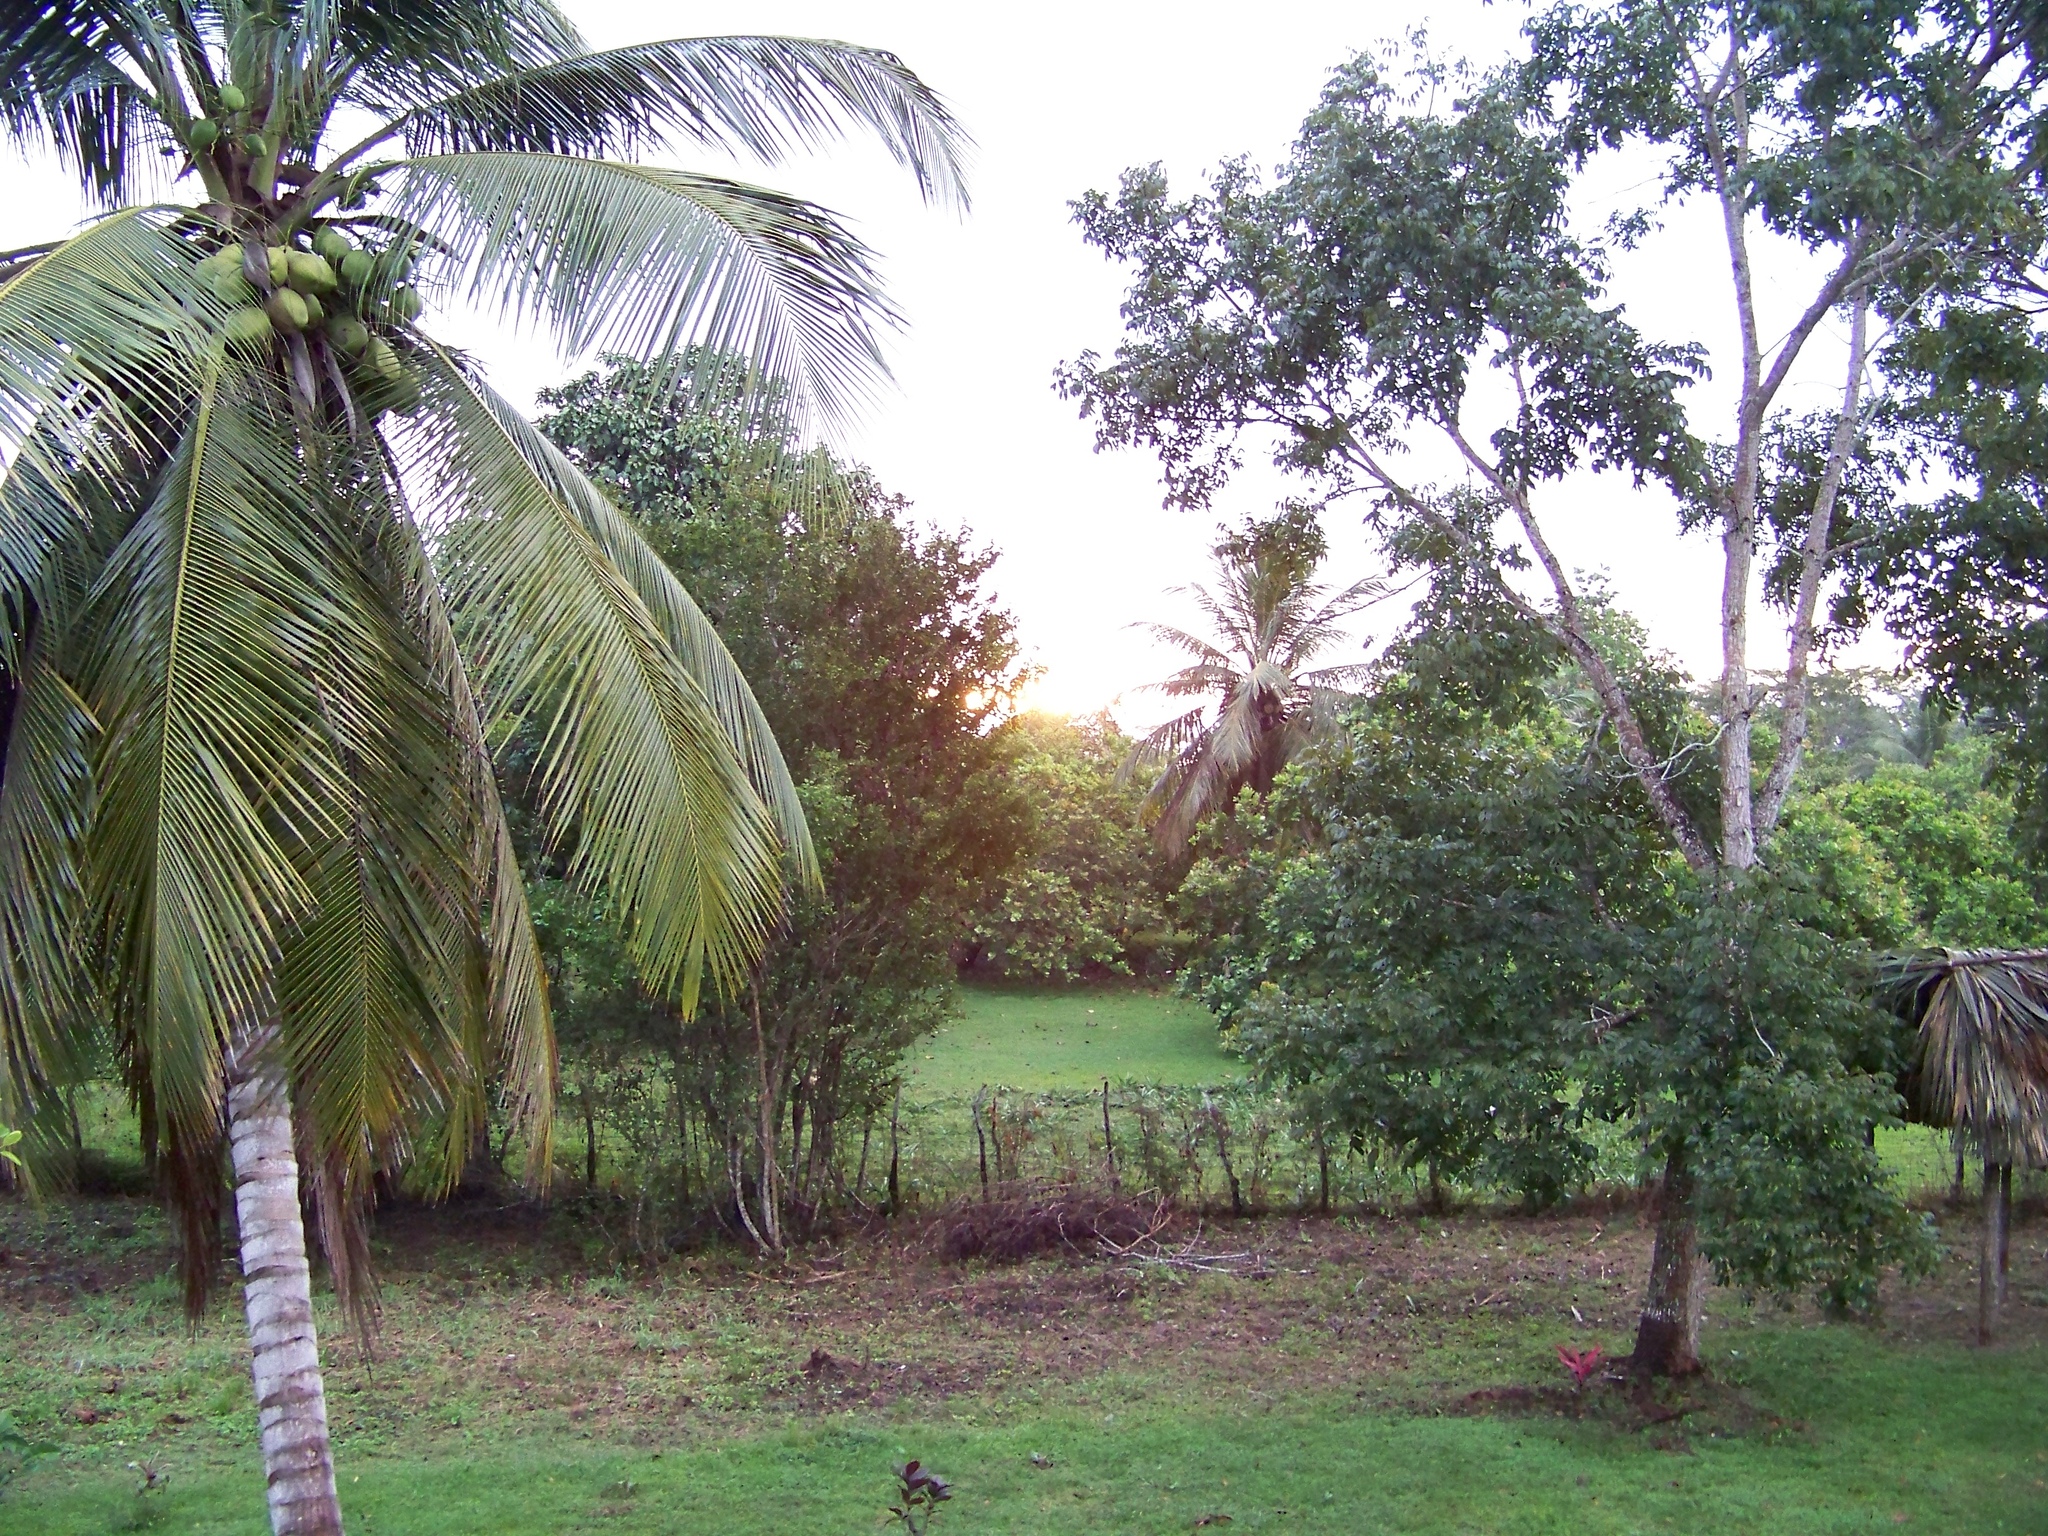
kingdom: Plantae
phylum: Tracheophyta
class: Liliopsida
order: Arecales
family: Arecaceae
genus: Cocos
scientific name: Cocos nucifera
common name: Coconut palm
